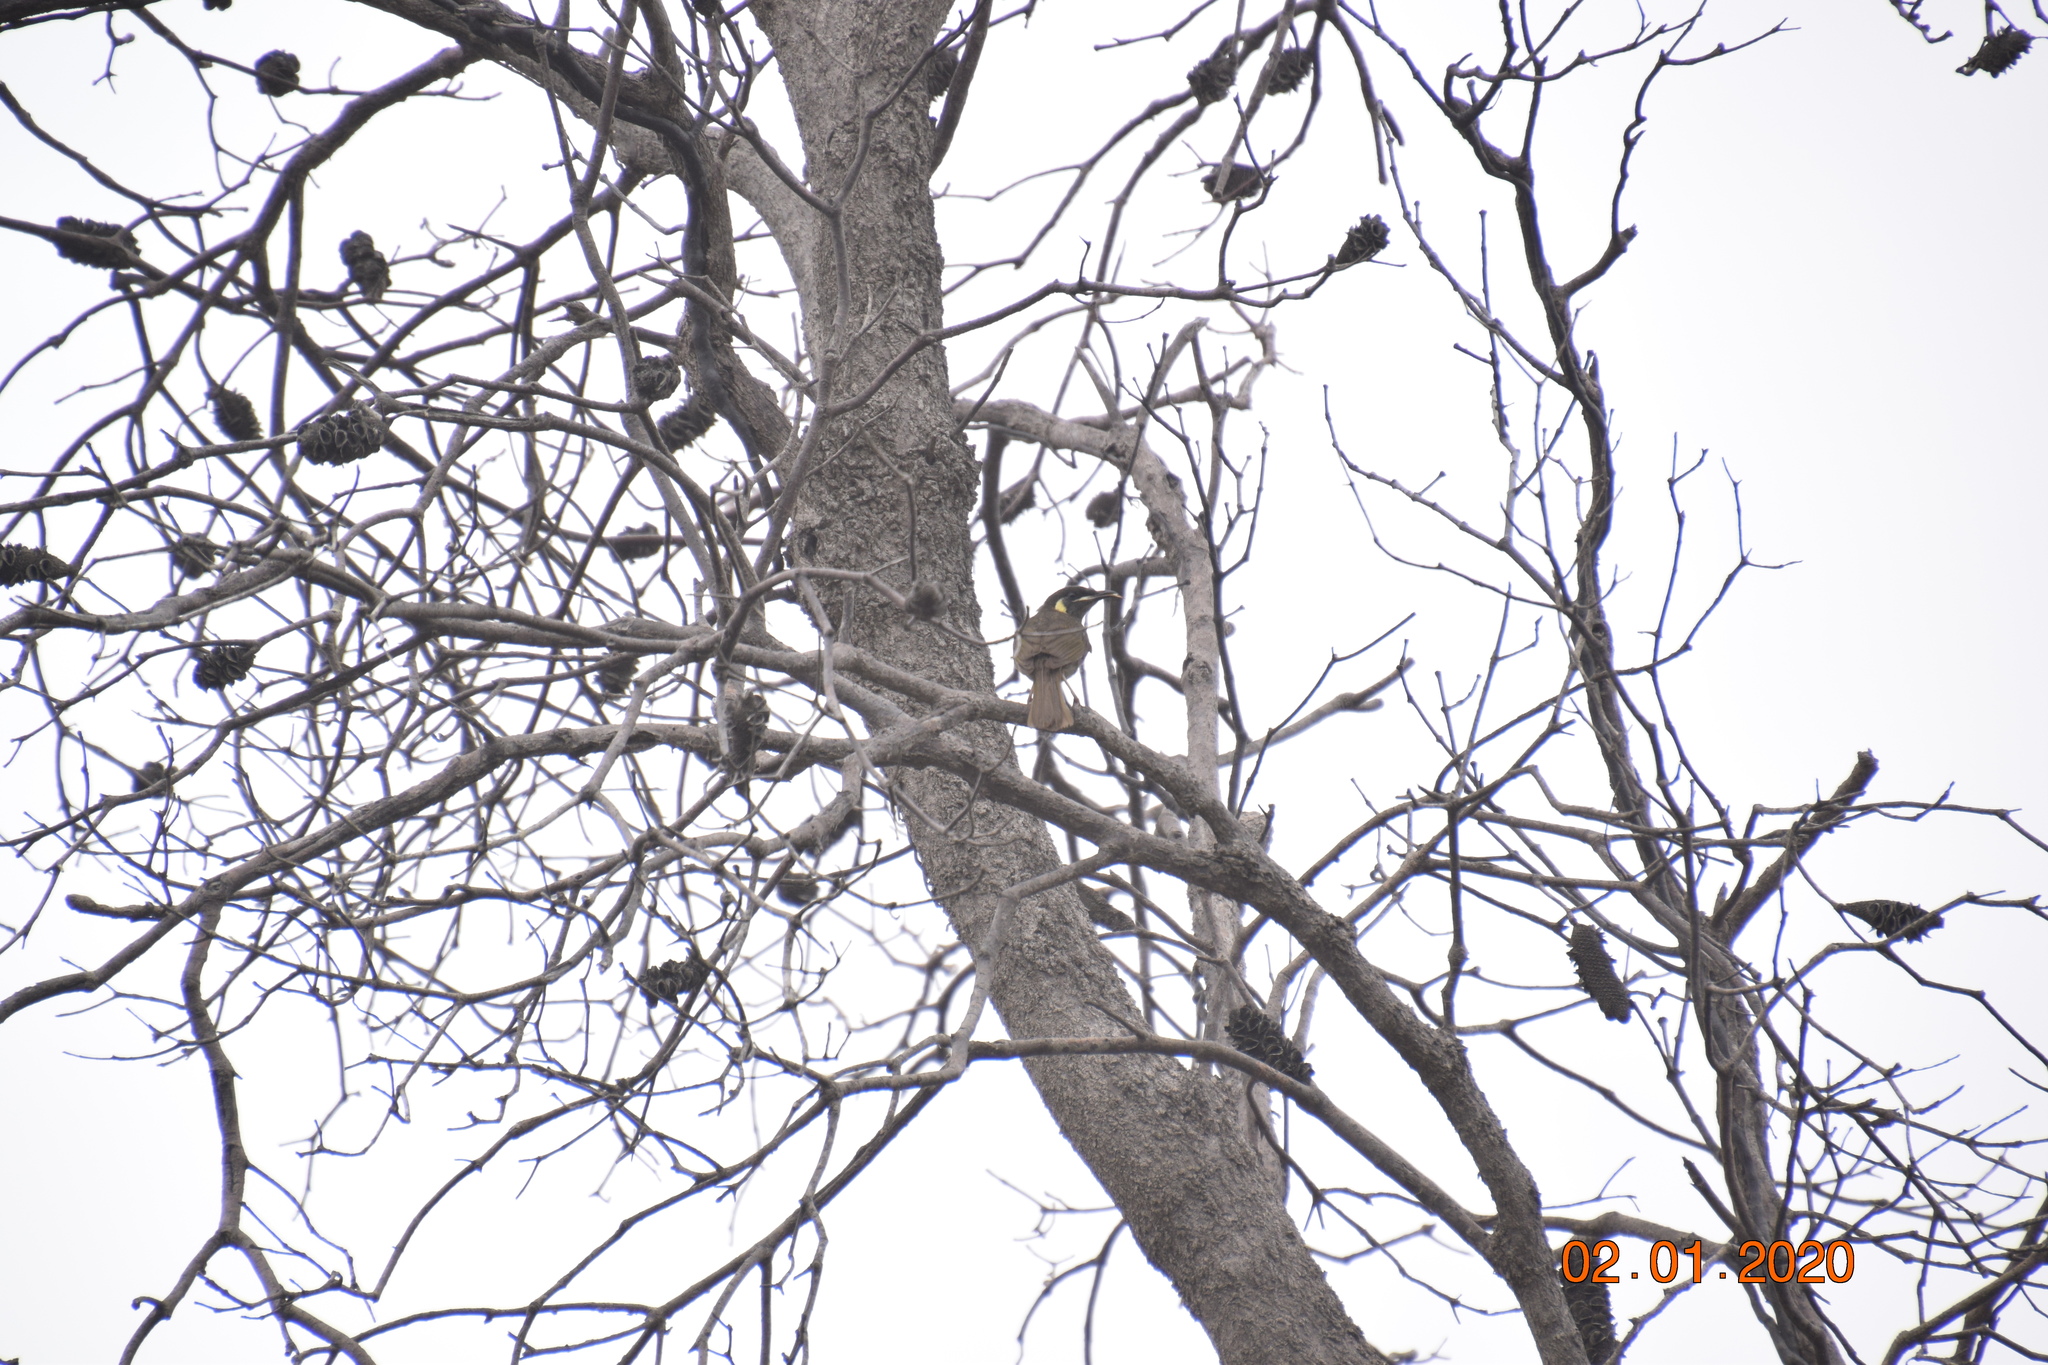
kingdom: Animalia
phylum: Chordata
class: Aves
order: Passeriformes
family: Meliphagidae
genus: Meliphaga
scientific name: Meliphaga lewinii
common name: Lewin's honeyeater
